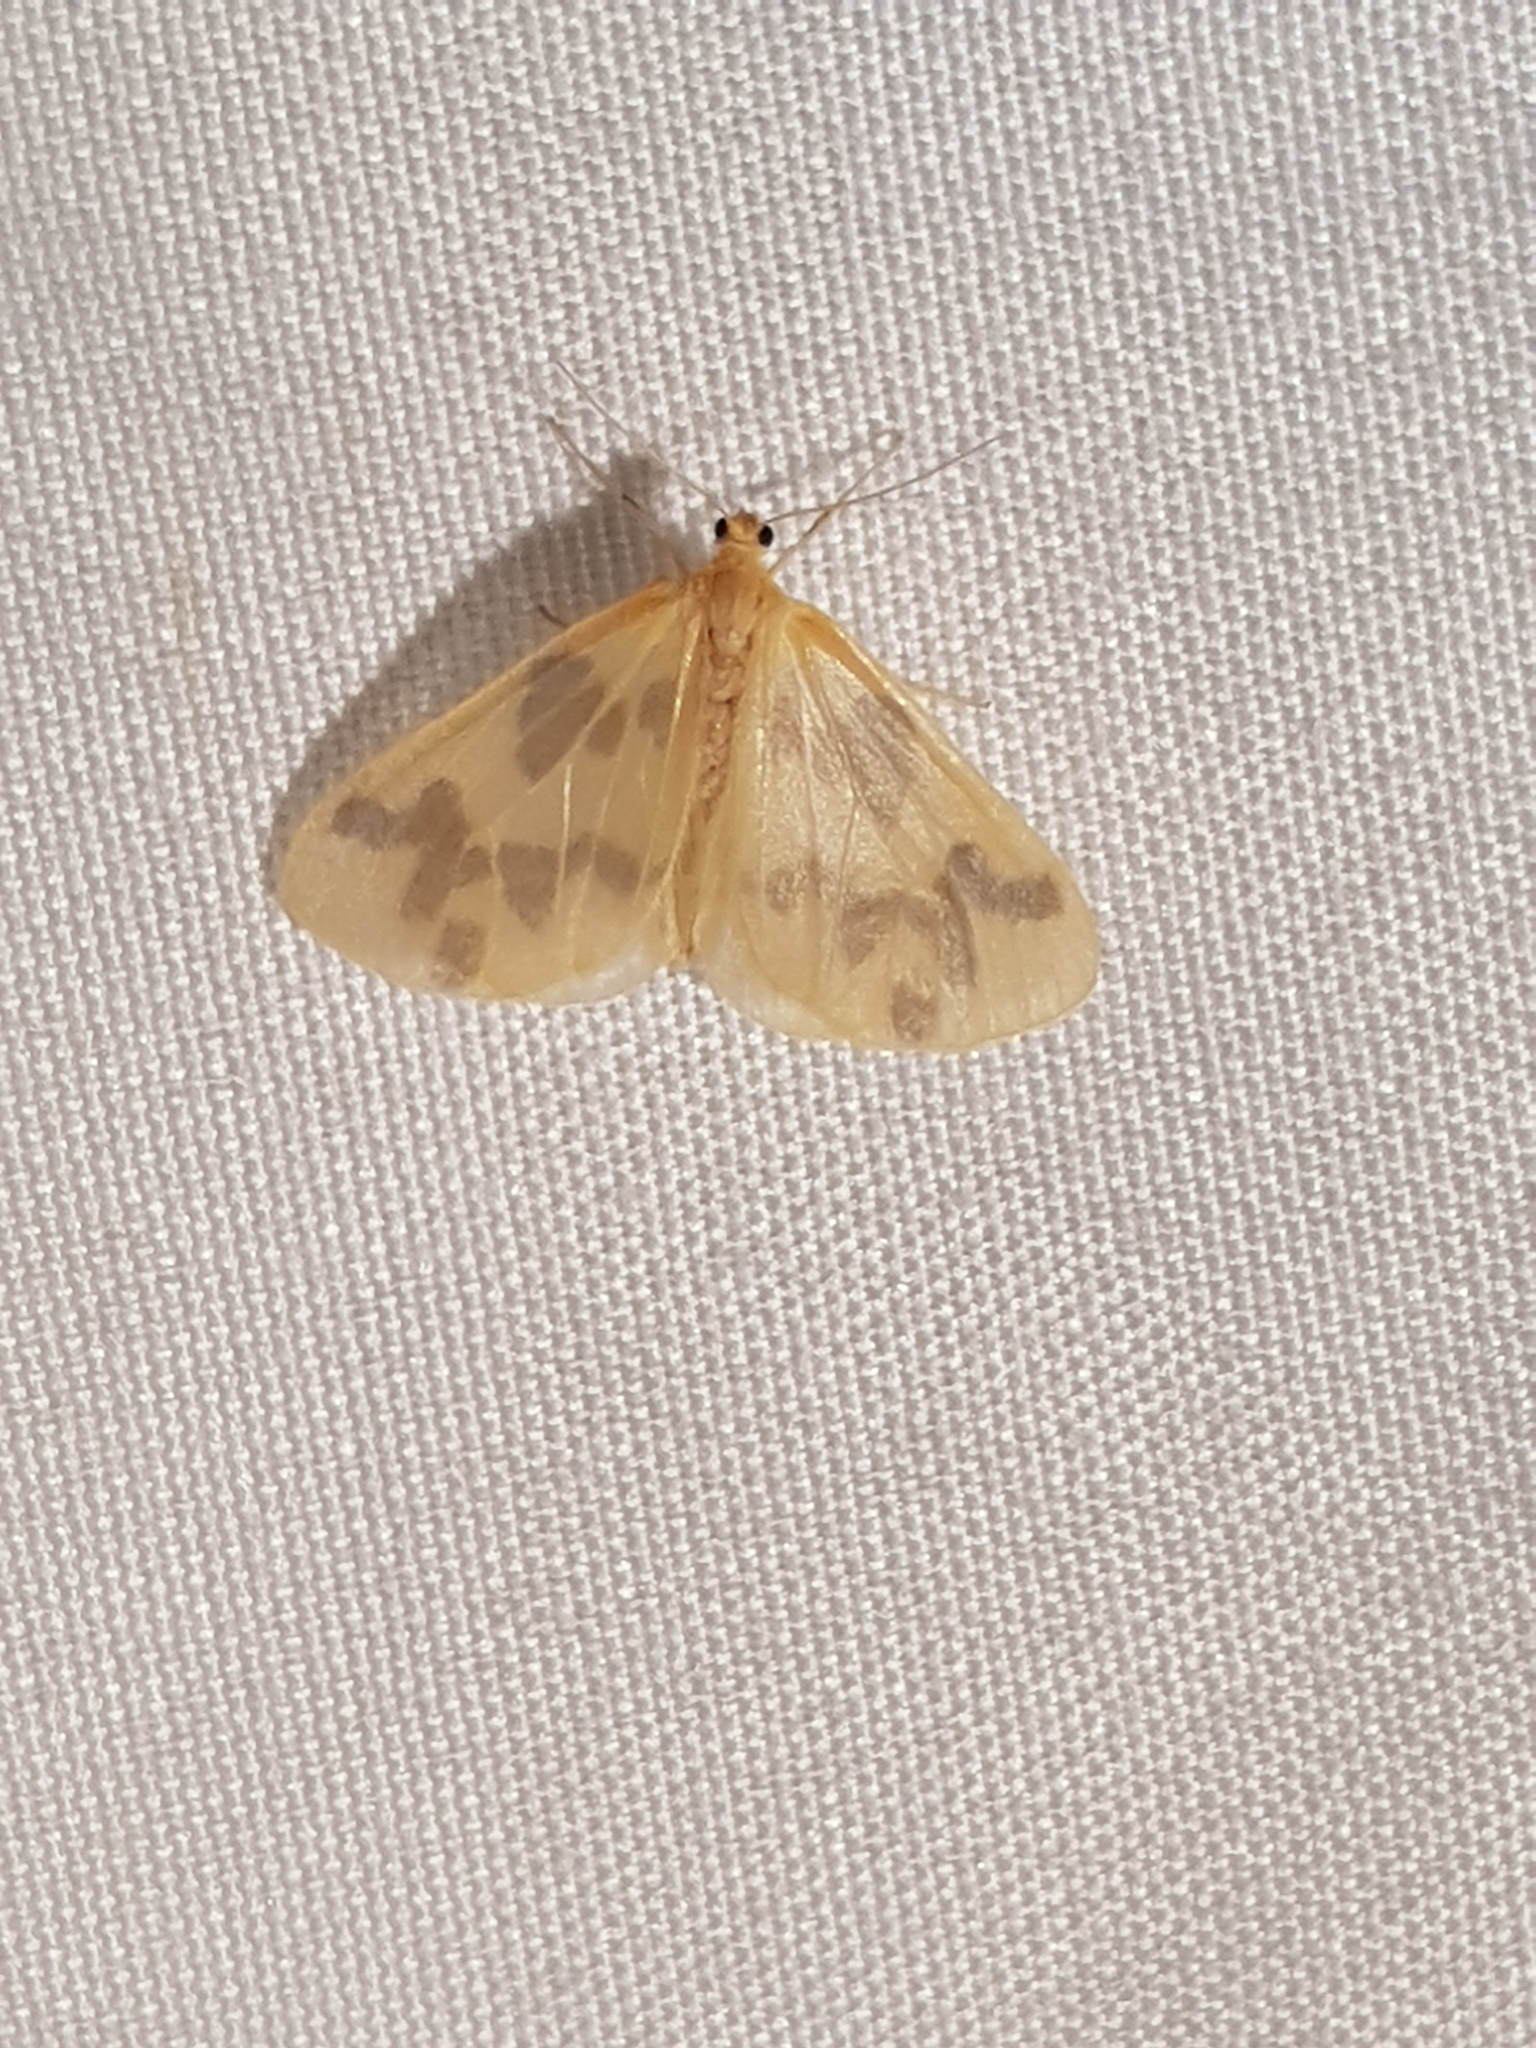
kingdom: Animalia
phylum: Arthropoda
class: Insecta
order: Lepidoptera
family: Geometridae
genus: Eubaphe
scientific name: Eubaphe mendica
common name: Beggar
